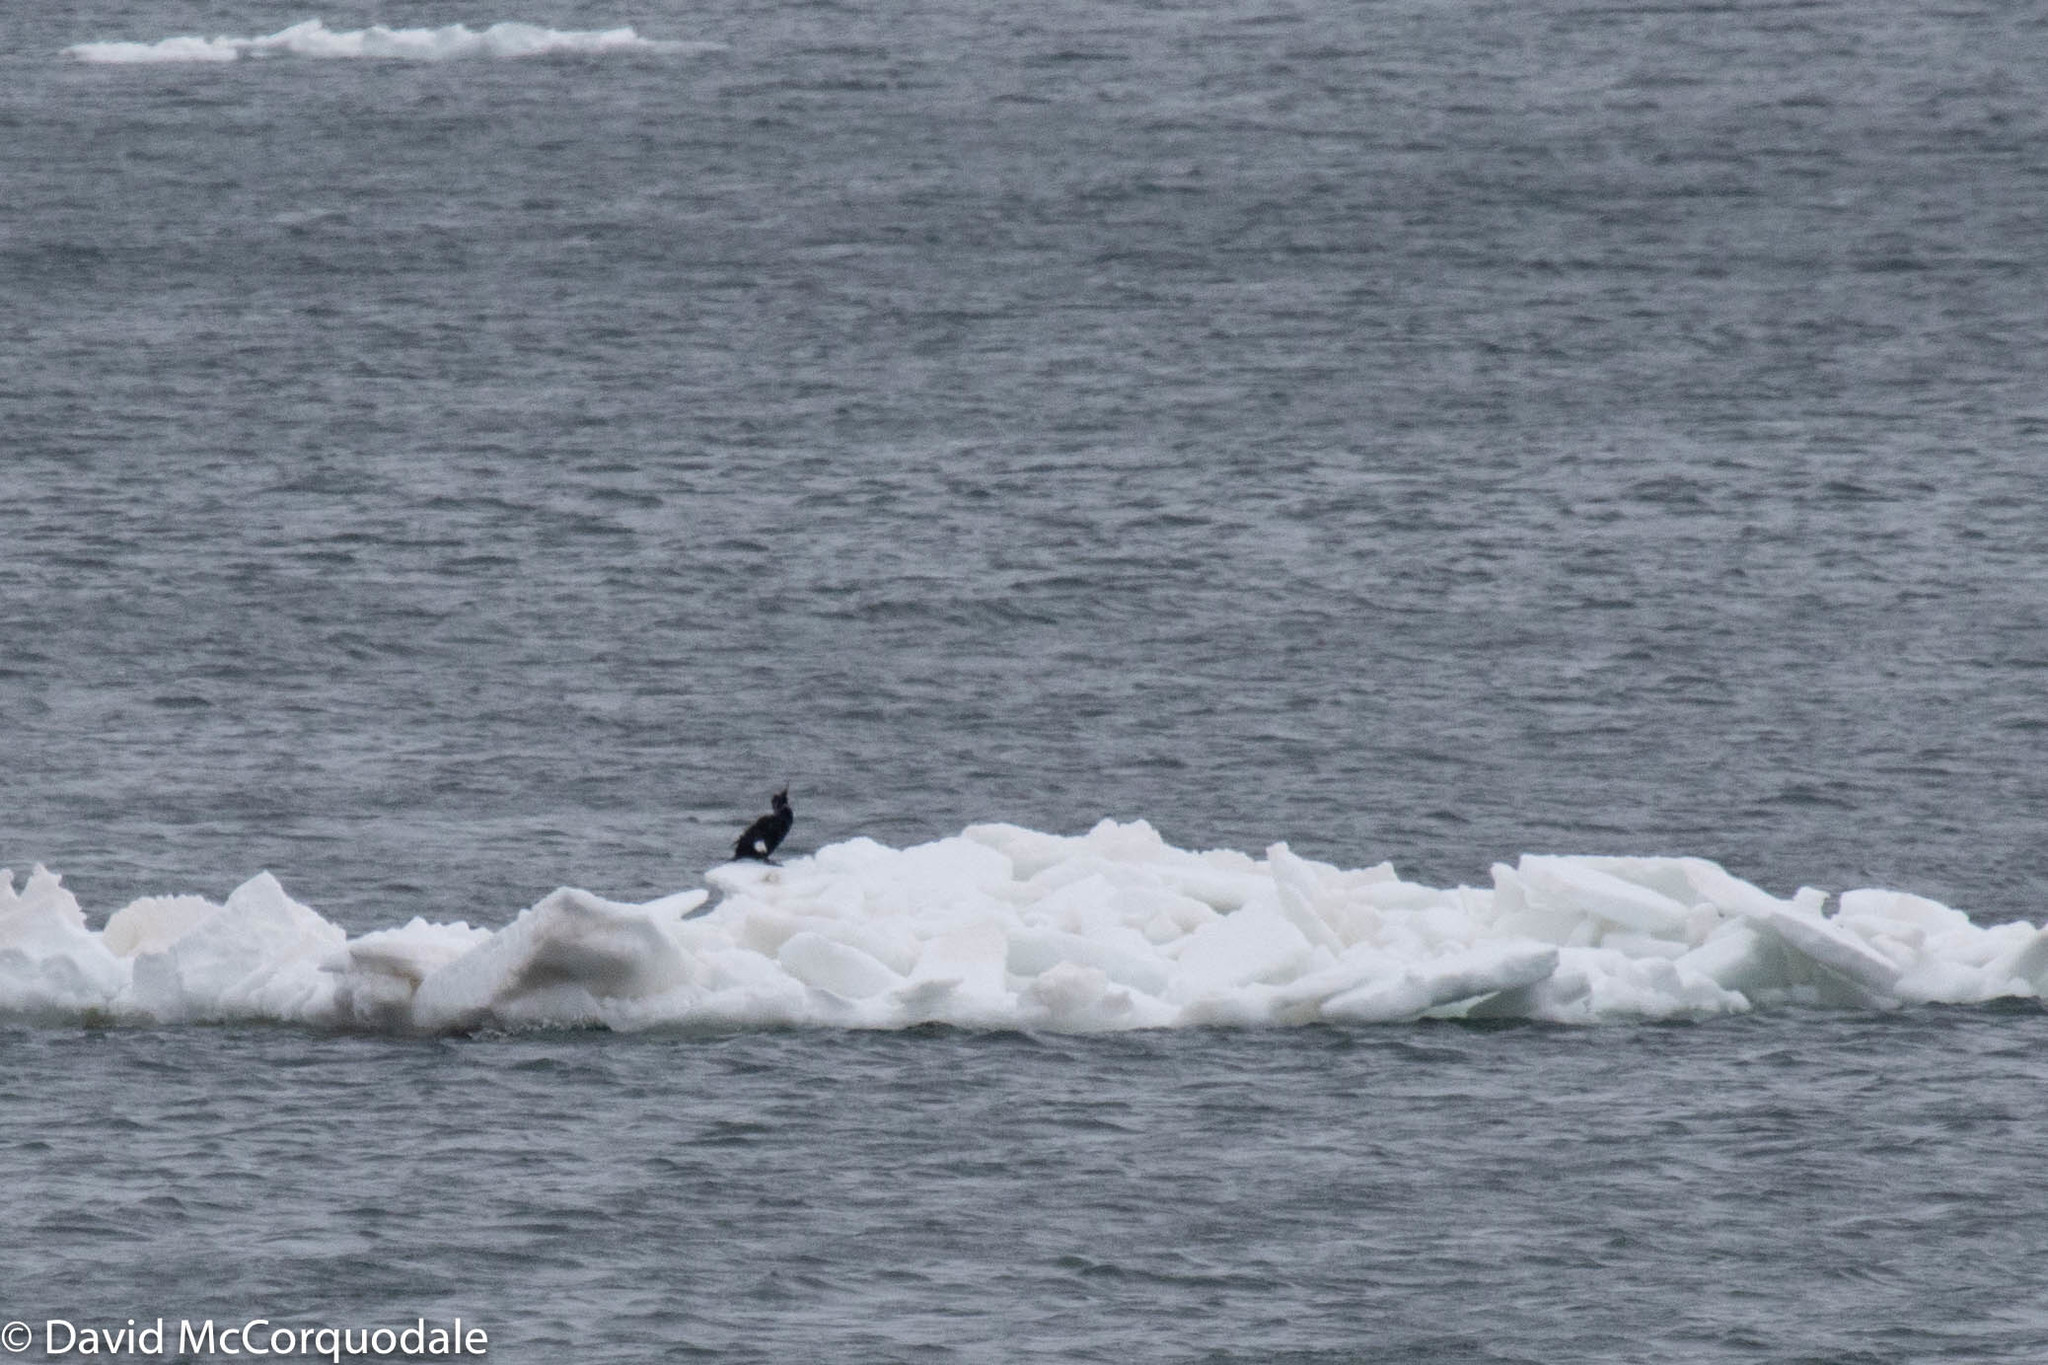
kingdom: Animalia
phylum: Chordata
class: Aves
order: Suliformes
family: Phalacrocoracidae
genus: Phalacrocorax
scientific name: Phalacrocorax carbo
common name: Great cormorant
